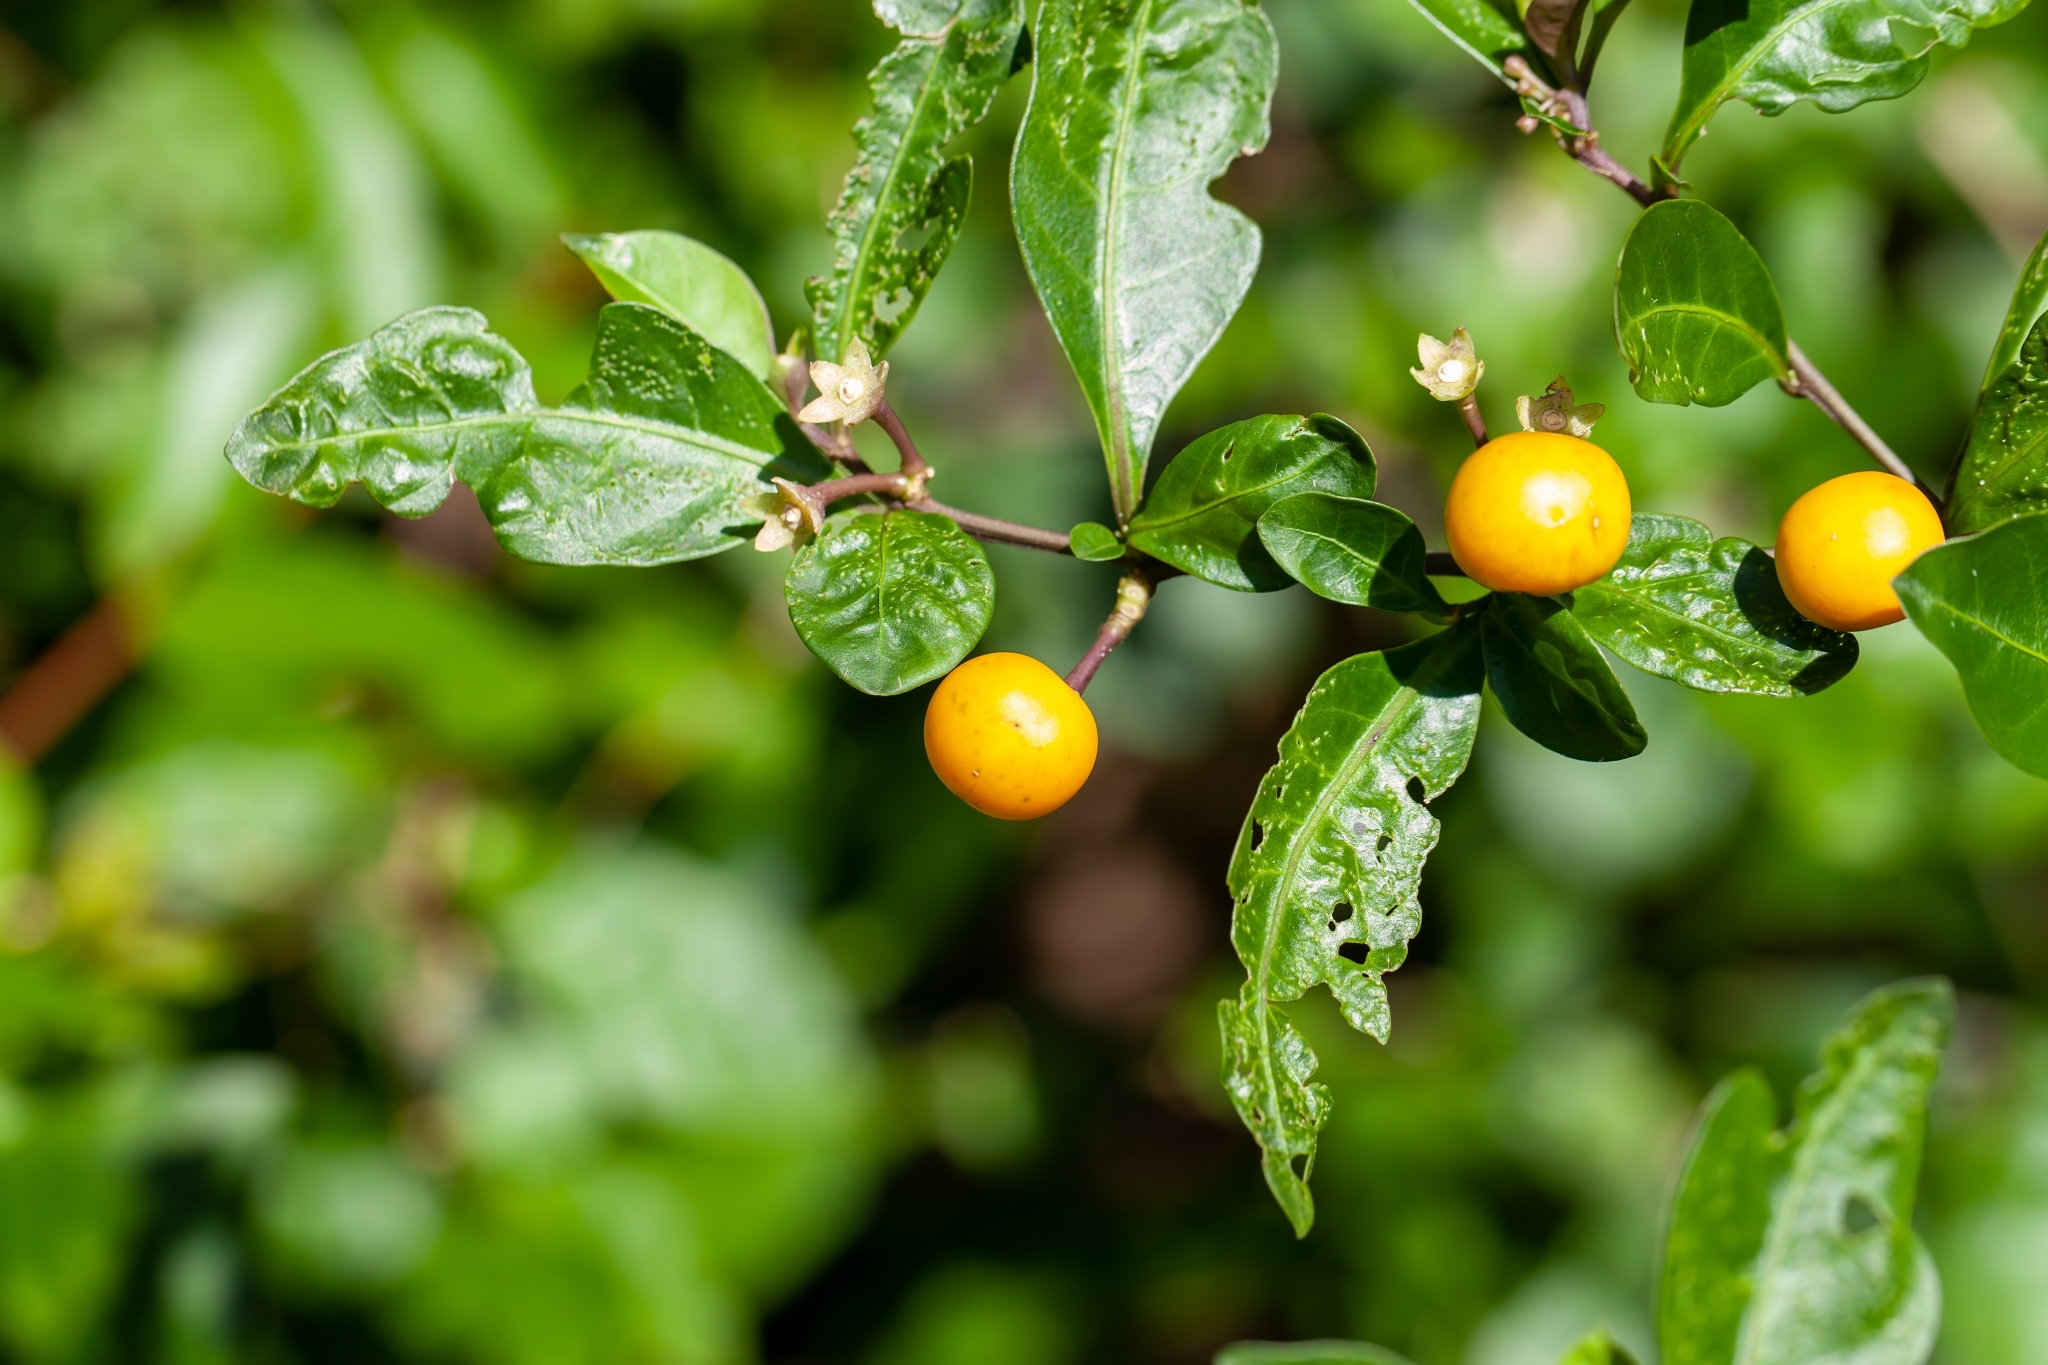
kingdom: Plantae
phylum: Tracheophyta
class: Magnoliopsida
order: Solanales
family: Solanaceae
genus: Solanum
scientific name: Solanum diphyllum
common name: Twoleaf nightshade
